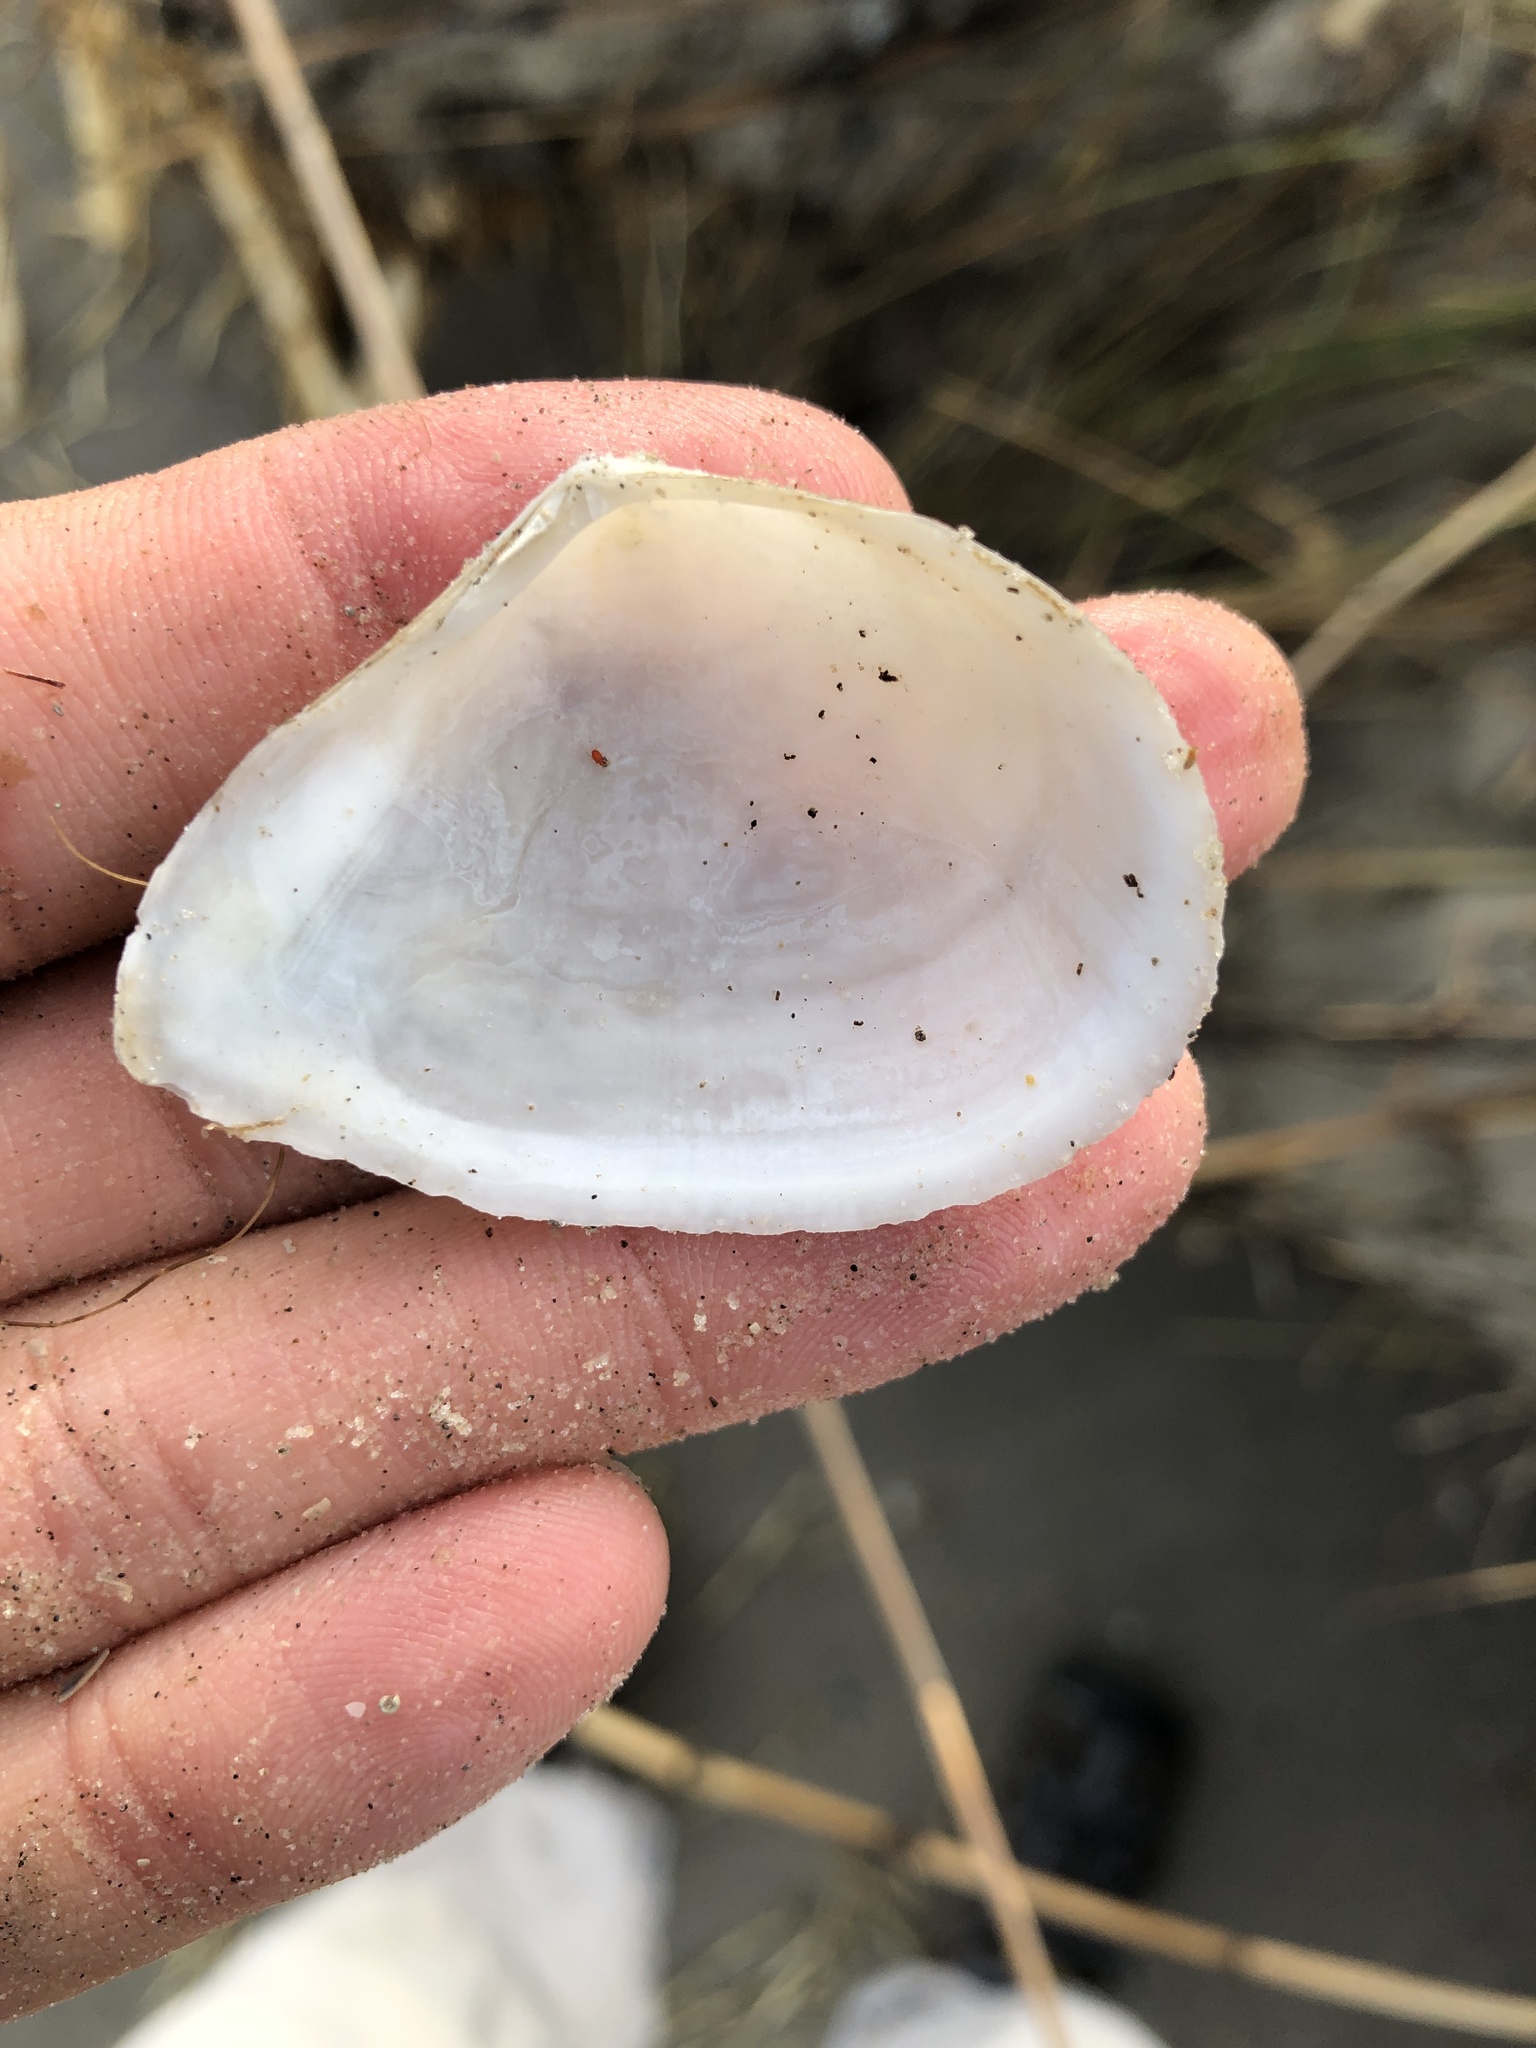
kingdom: Animalia
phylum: Mollusca
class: Bivalvia
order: Cardiida
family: Tellinidae
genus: Austromacoma
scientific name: Austromacoma constricta
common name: Constricted macoma
